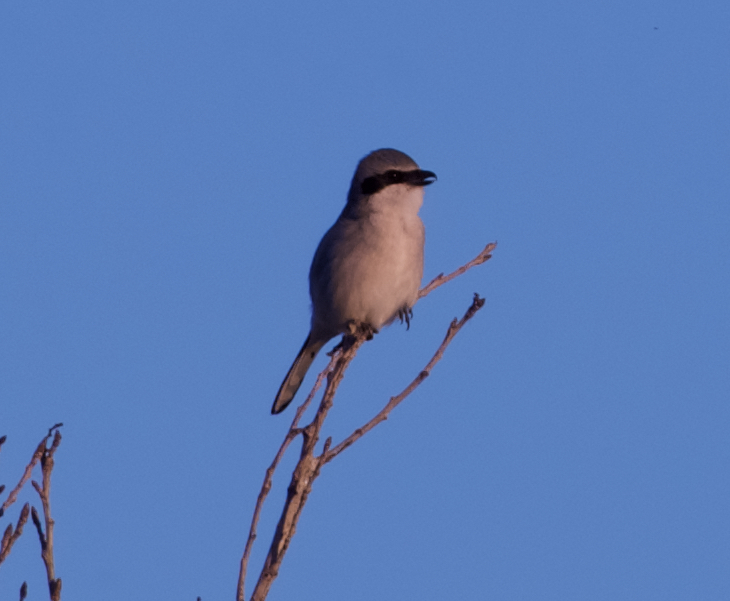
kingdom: Animalia
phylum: Chordata
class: Aves
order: Passeriformes
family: Laniidae
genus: Lanius
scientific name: Lanius ludovicianus
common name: Loggerhead shrike
